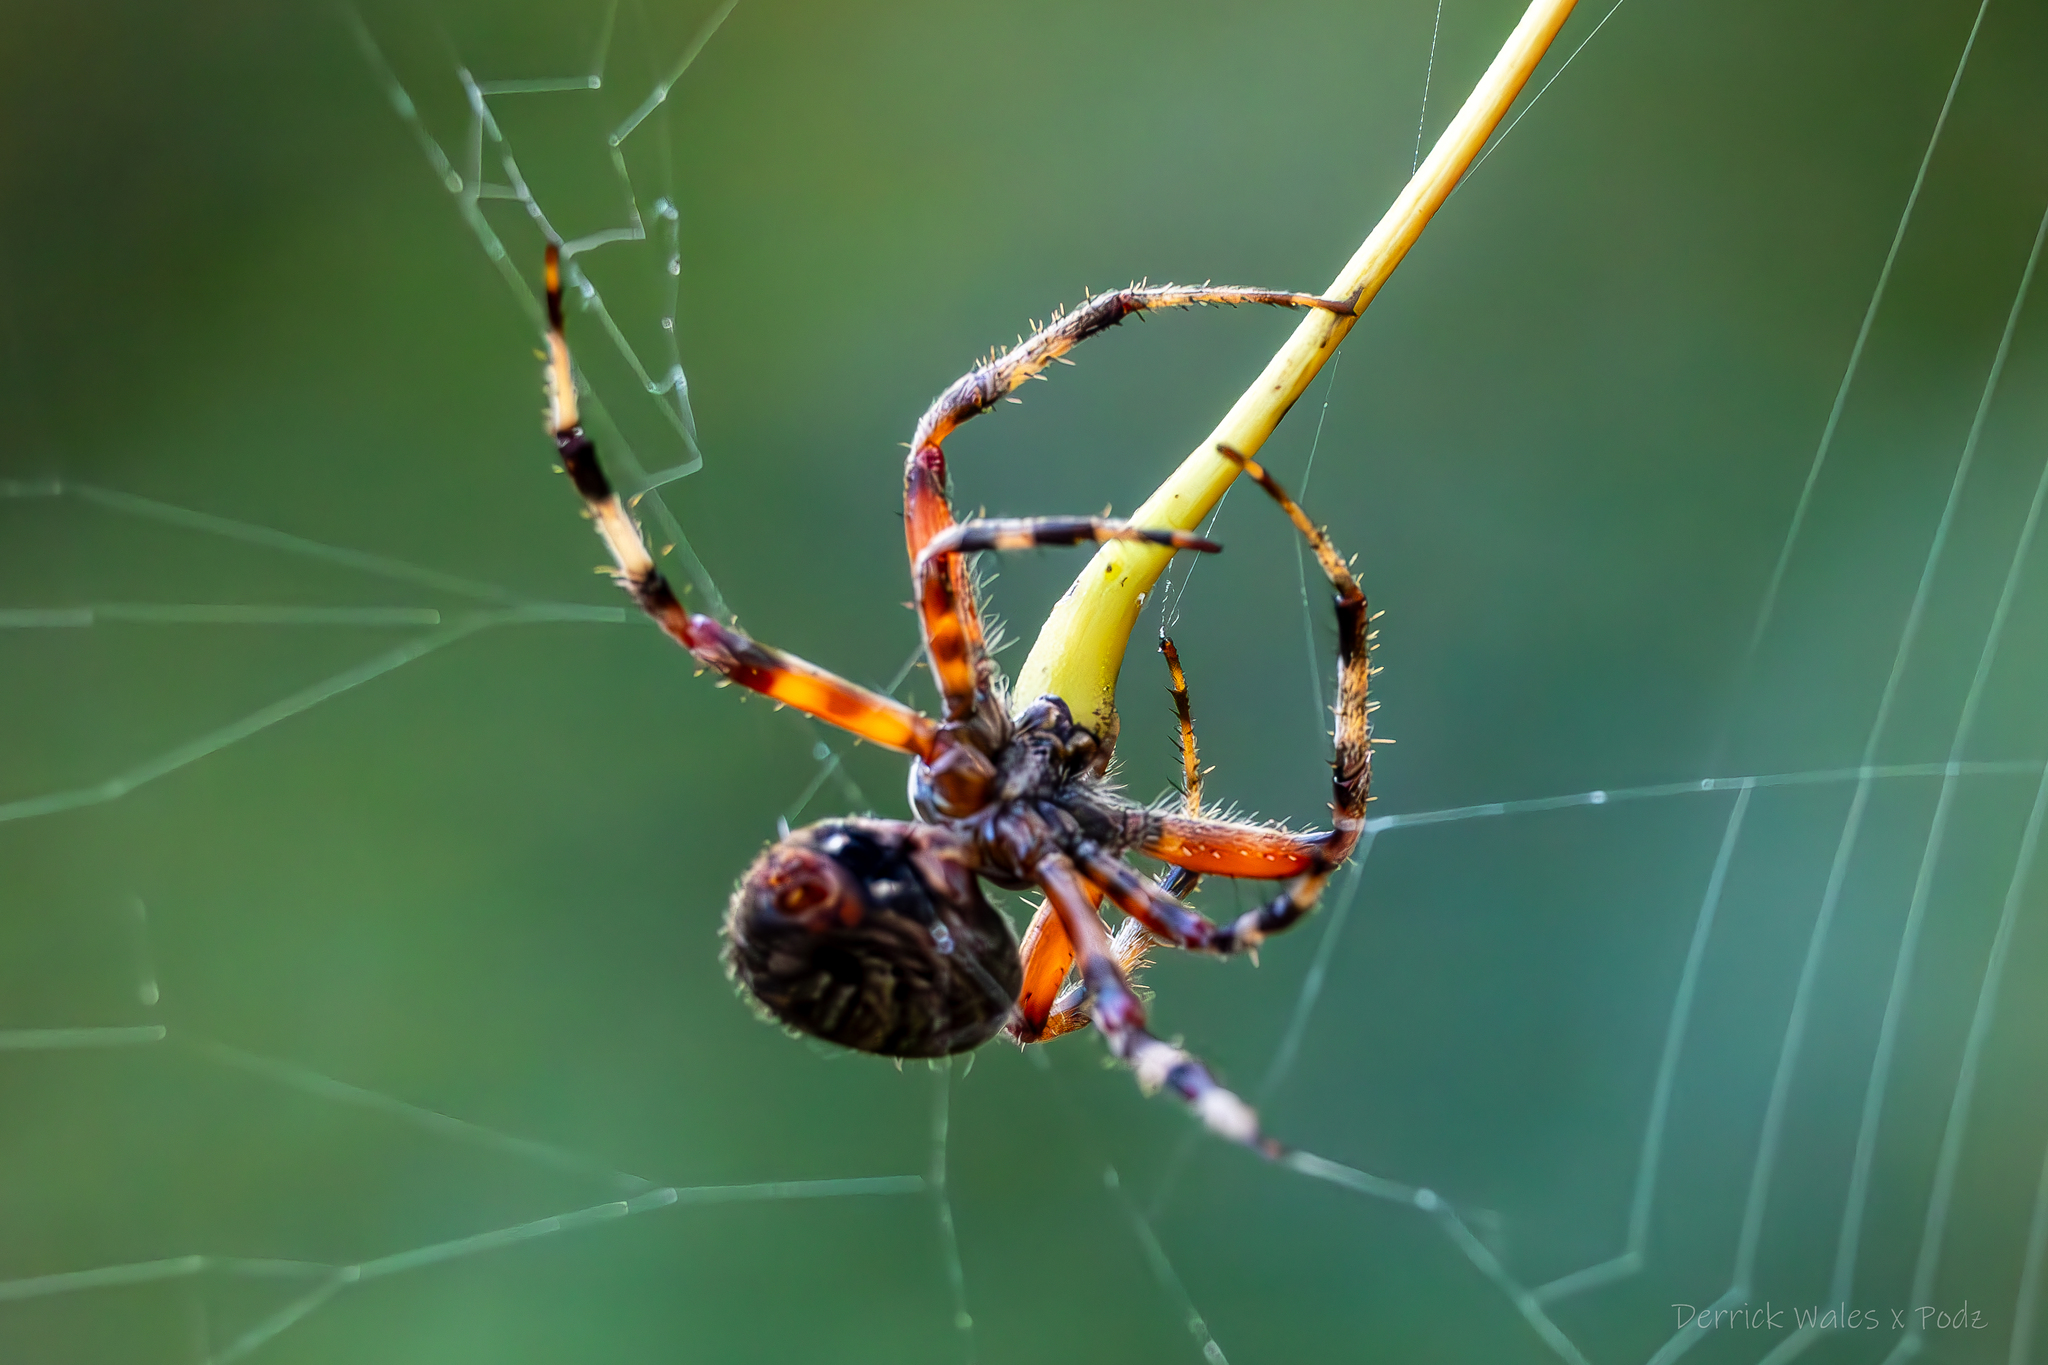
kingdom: Animalia
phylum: Arthropoda
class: Arachnida
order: Araneae
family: Araneidae
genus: Neoscona
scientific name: Neoscona crucifera
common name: Spotted orbweaver
